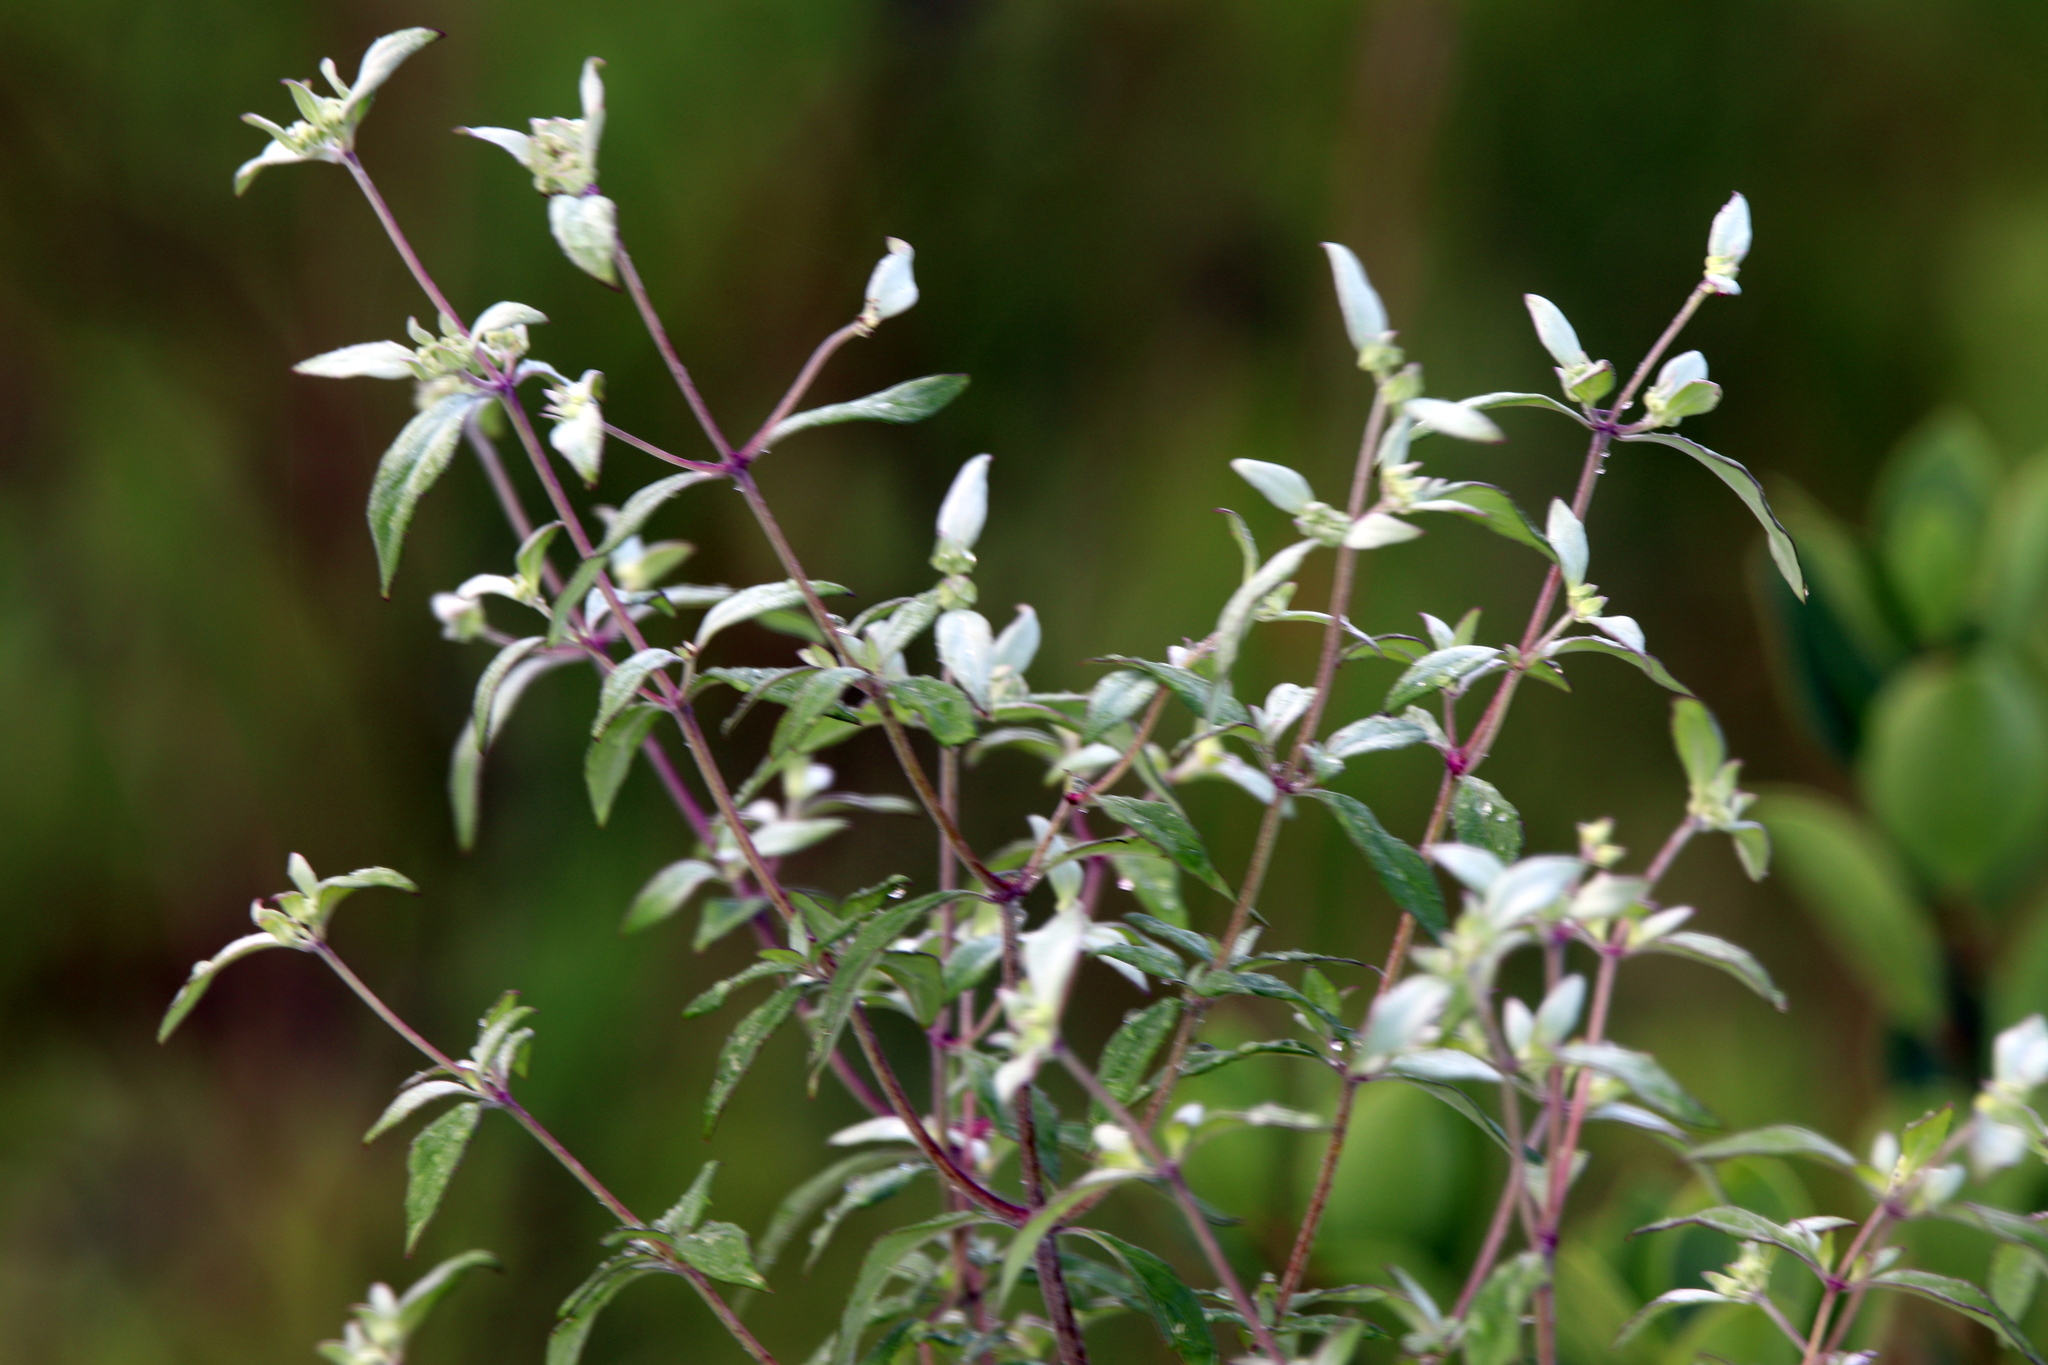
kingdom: Plantae
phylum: Tracheophyta
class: Magnoliopsida
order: Lamiales
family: Lamiaceae
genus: Pycnanthemum
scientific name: Pycnanthemum albescens
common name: White-leaf mountain-mint
